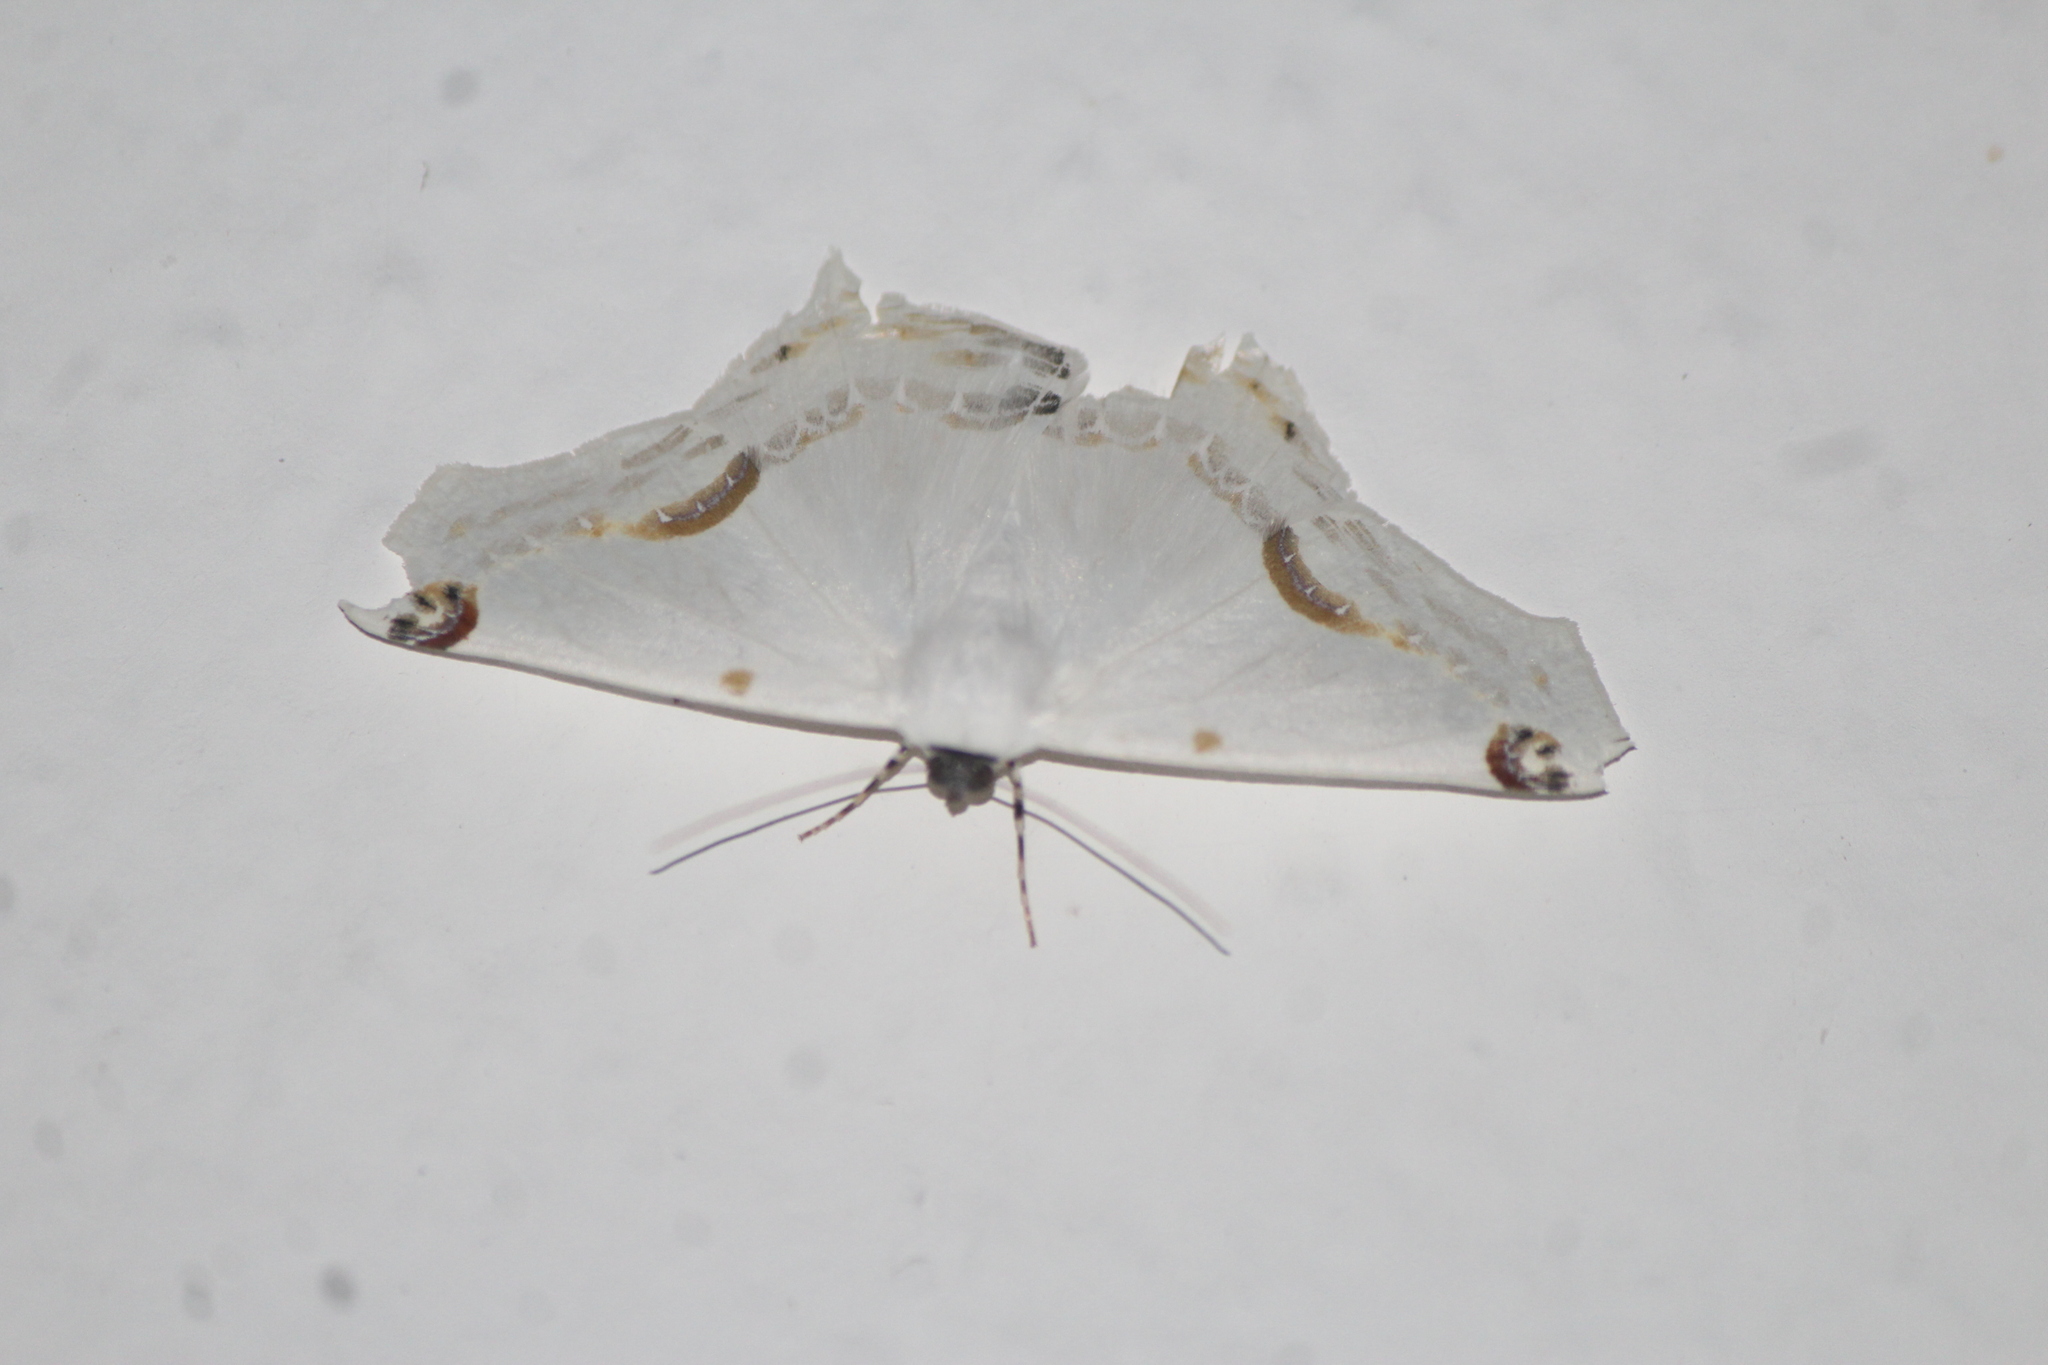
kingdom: Animalia
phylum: Arthropoda
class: Insecta
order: Lepidoptera
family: Geometridae
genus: Sericoptera
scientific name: Sericoptera mahometaria
